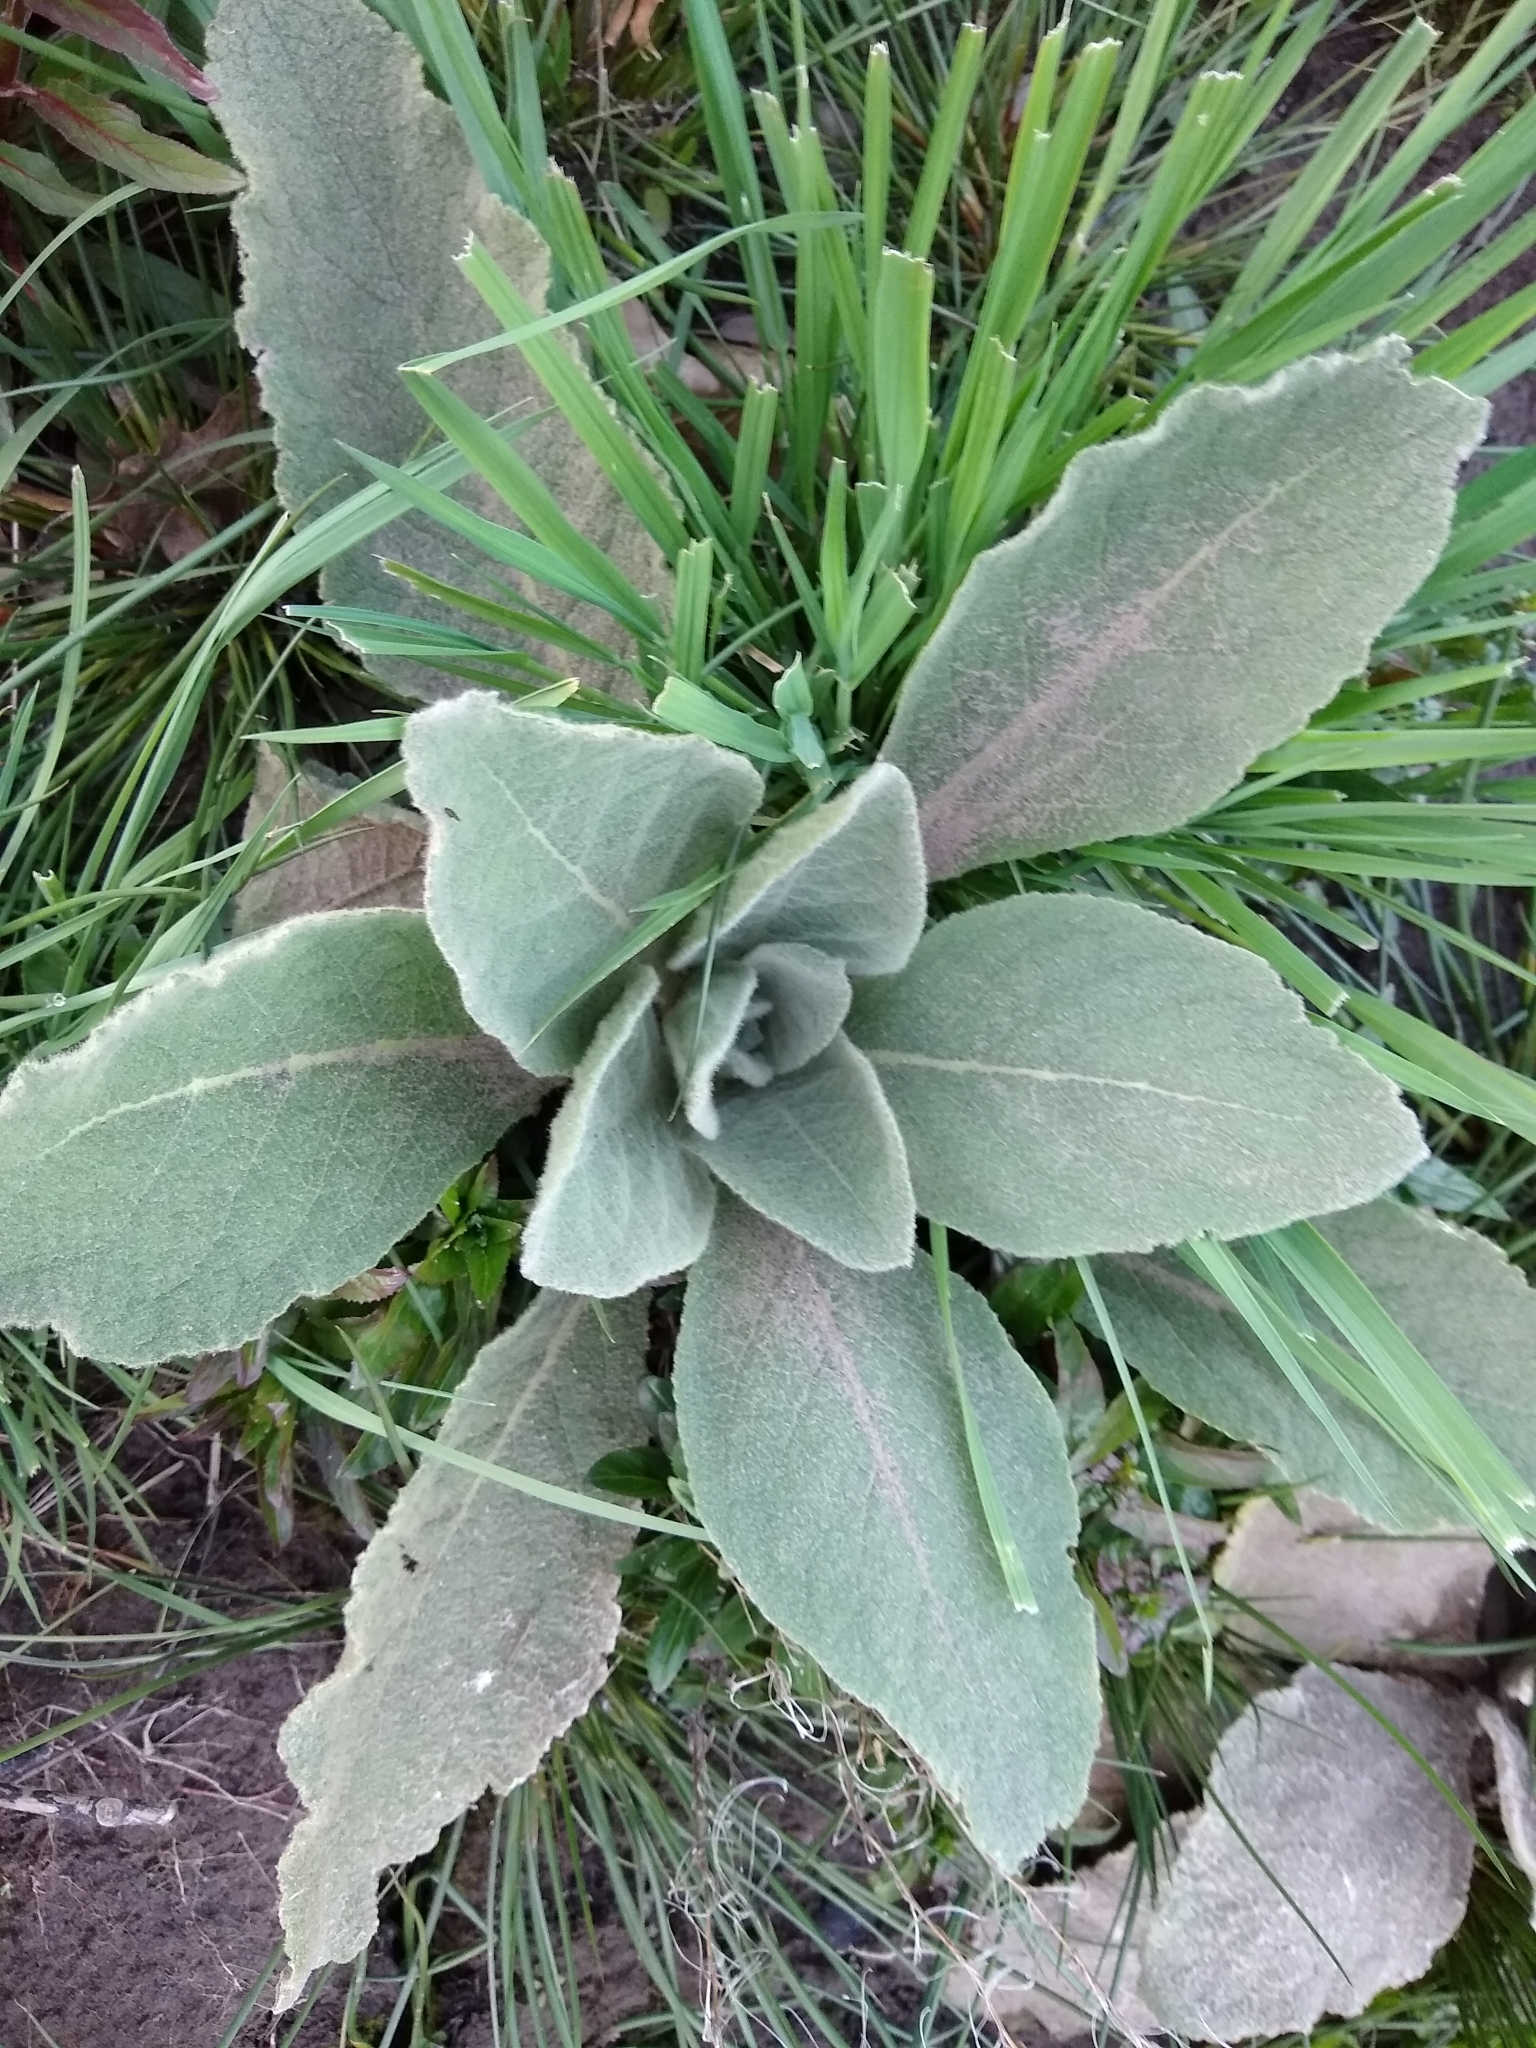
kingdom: Plantae
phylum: Tracheophyta
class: Magnoliopsida
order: Lamiales
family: Scrophulariaceae
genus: Verbascum
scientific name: Verbascum thapsus
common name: Common mullein
